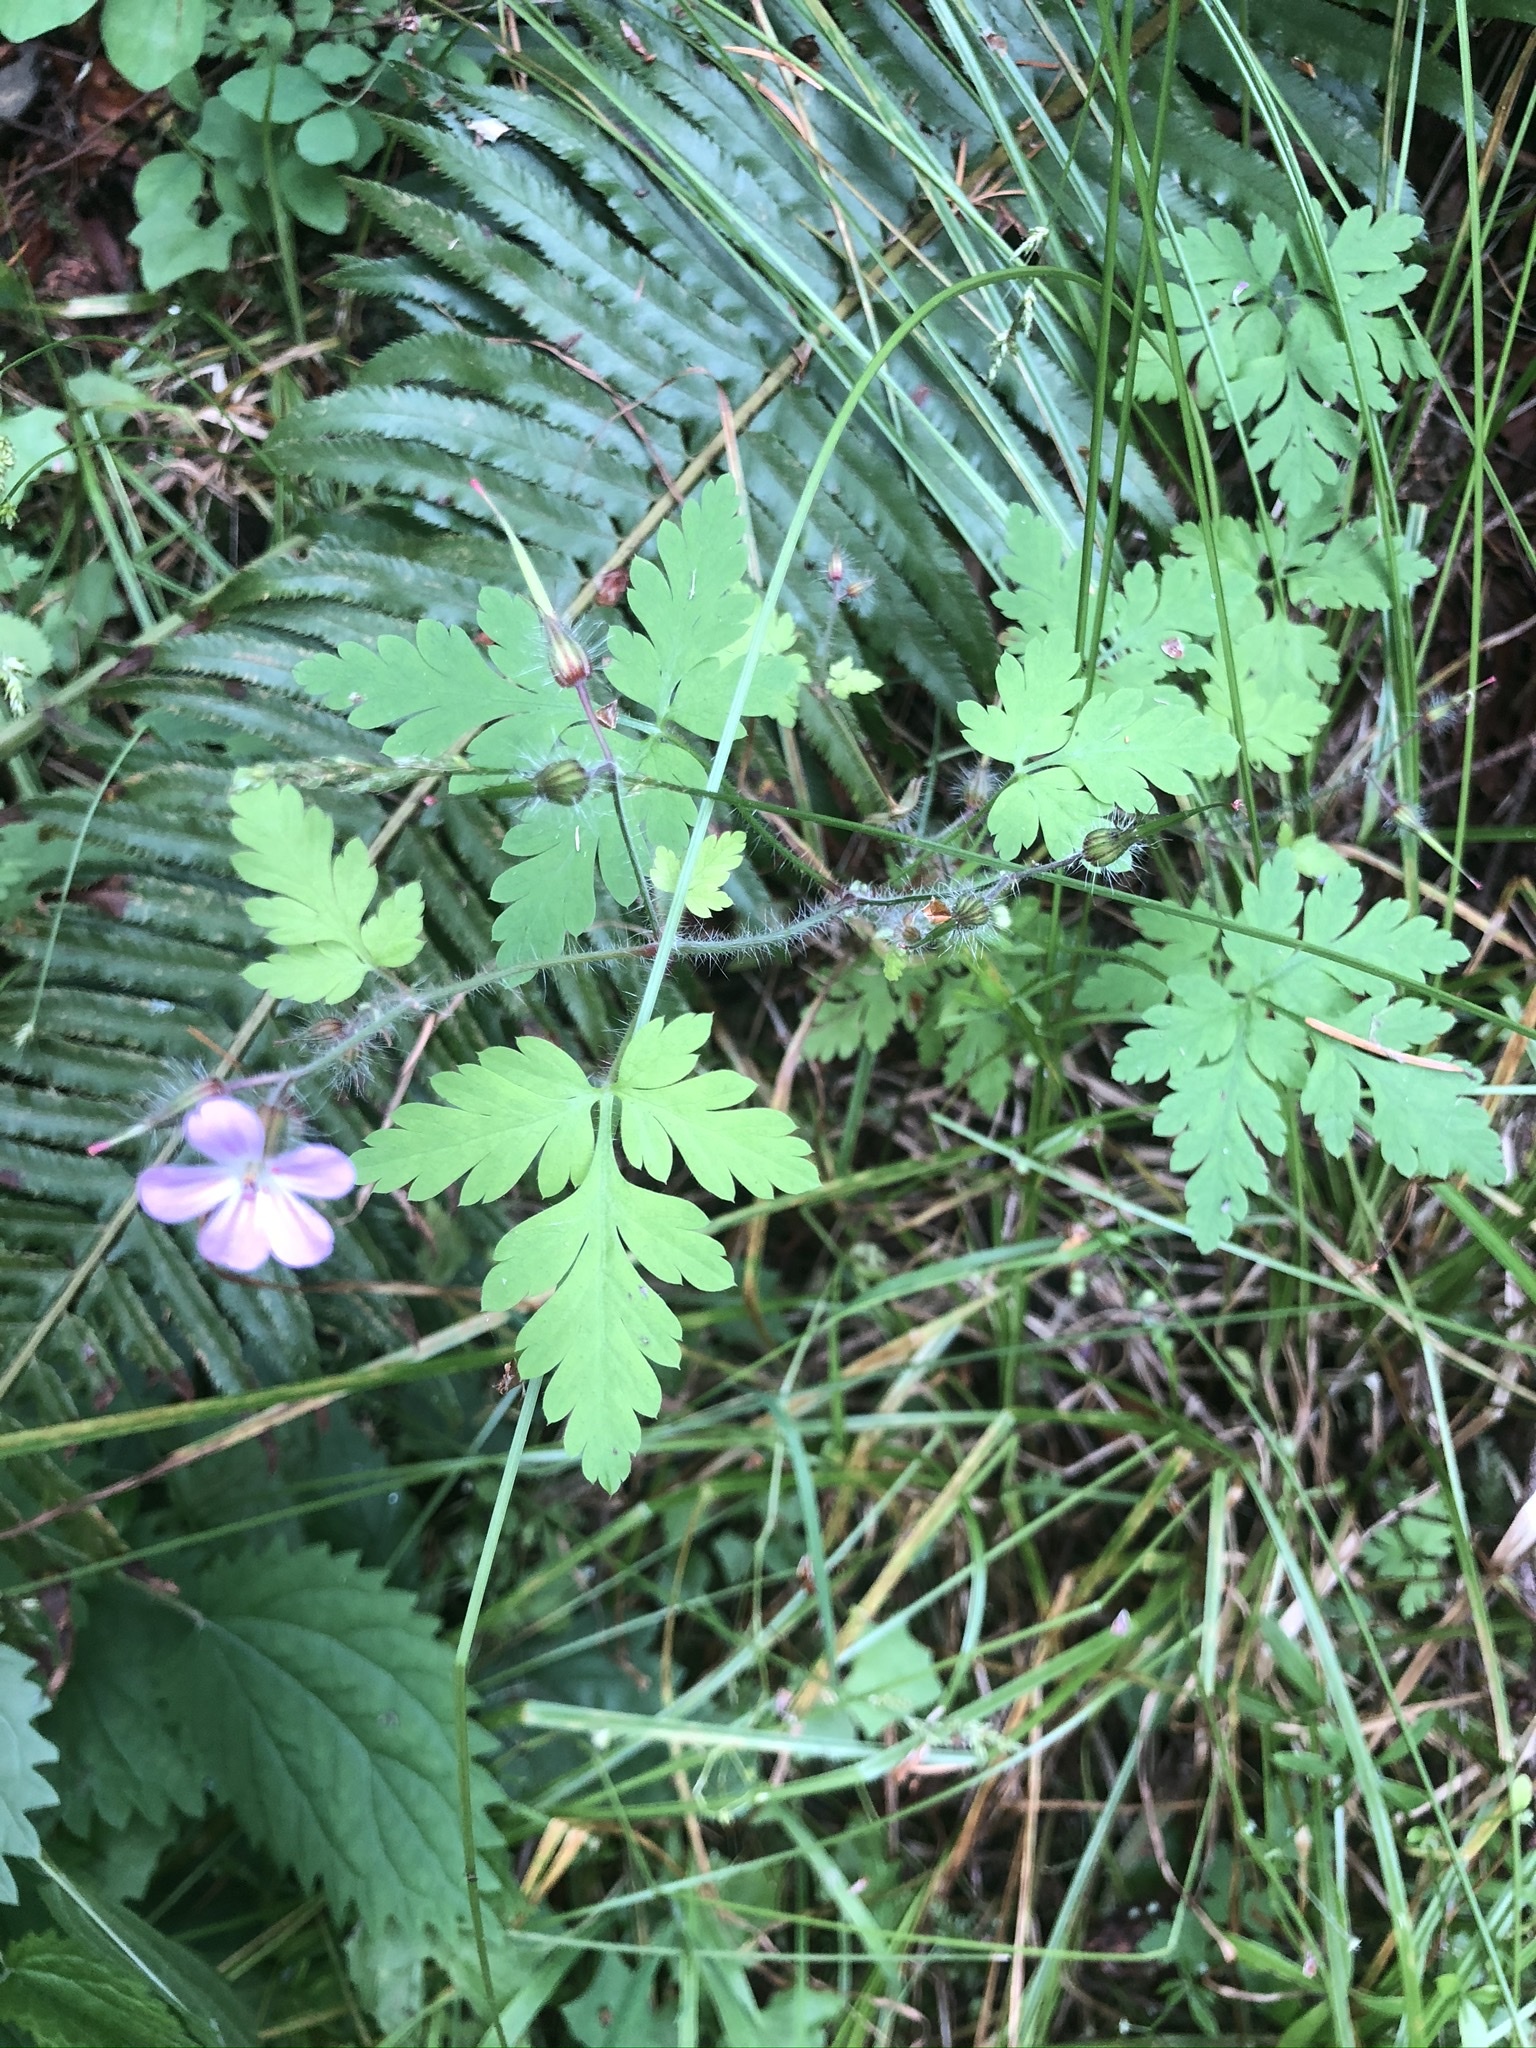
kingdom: Plantae
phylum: Tracheophyta
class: Magnoliopsida
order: Geraniales
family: Geraniaceae
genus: Geranium
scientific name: Geranium robertianum
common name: Herb-robert
